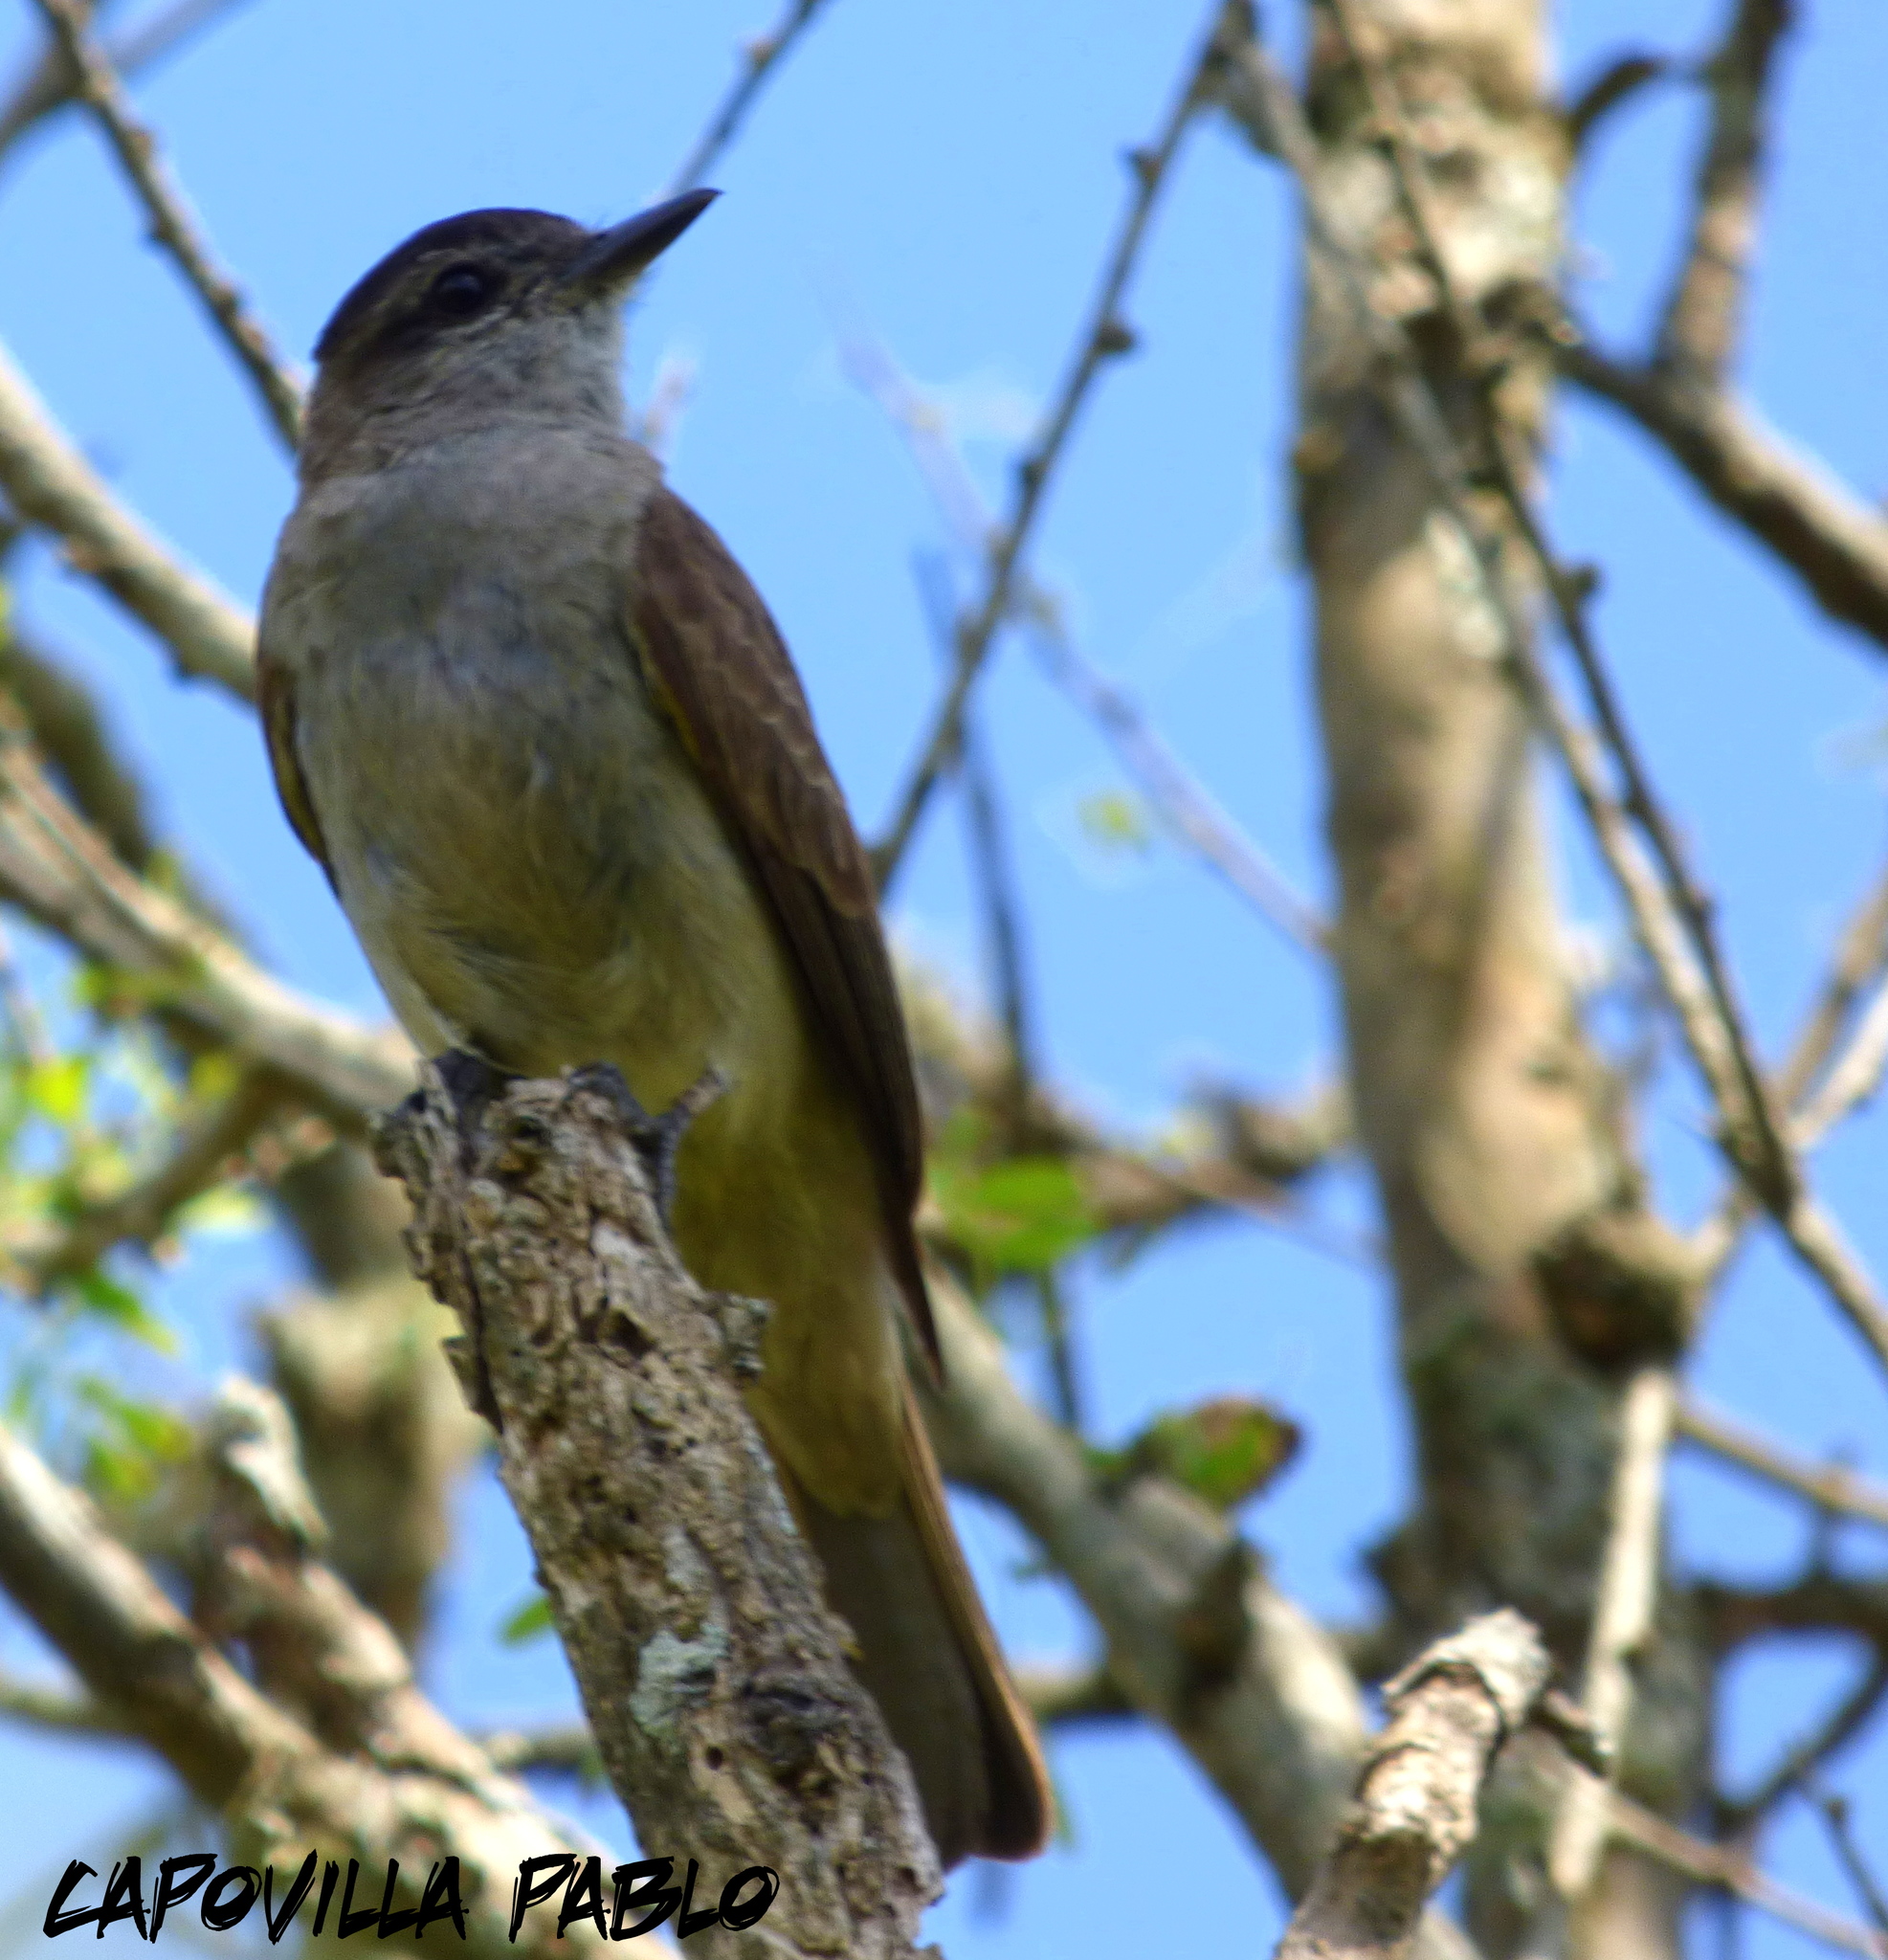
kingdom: Animalia
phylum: Chordata
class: Aves
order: Passeriformes
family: Tyrannidae
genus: Empidonomus
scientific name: Empidonomus aurantioatrocristatus
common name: Crowned slaty flycatcher
